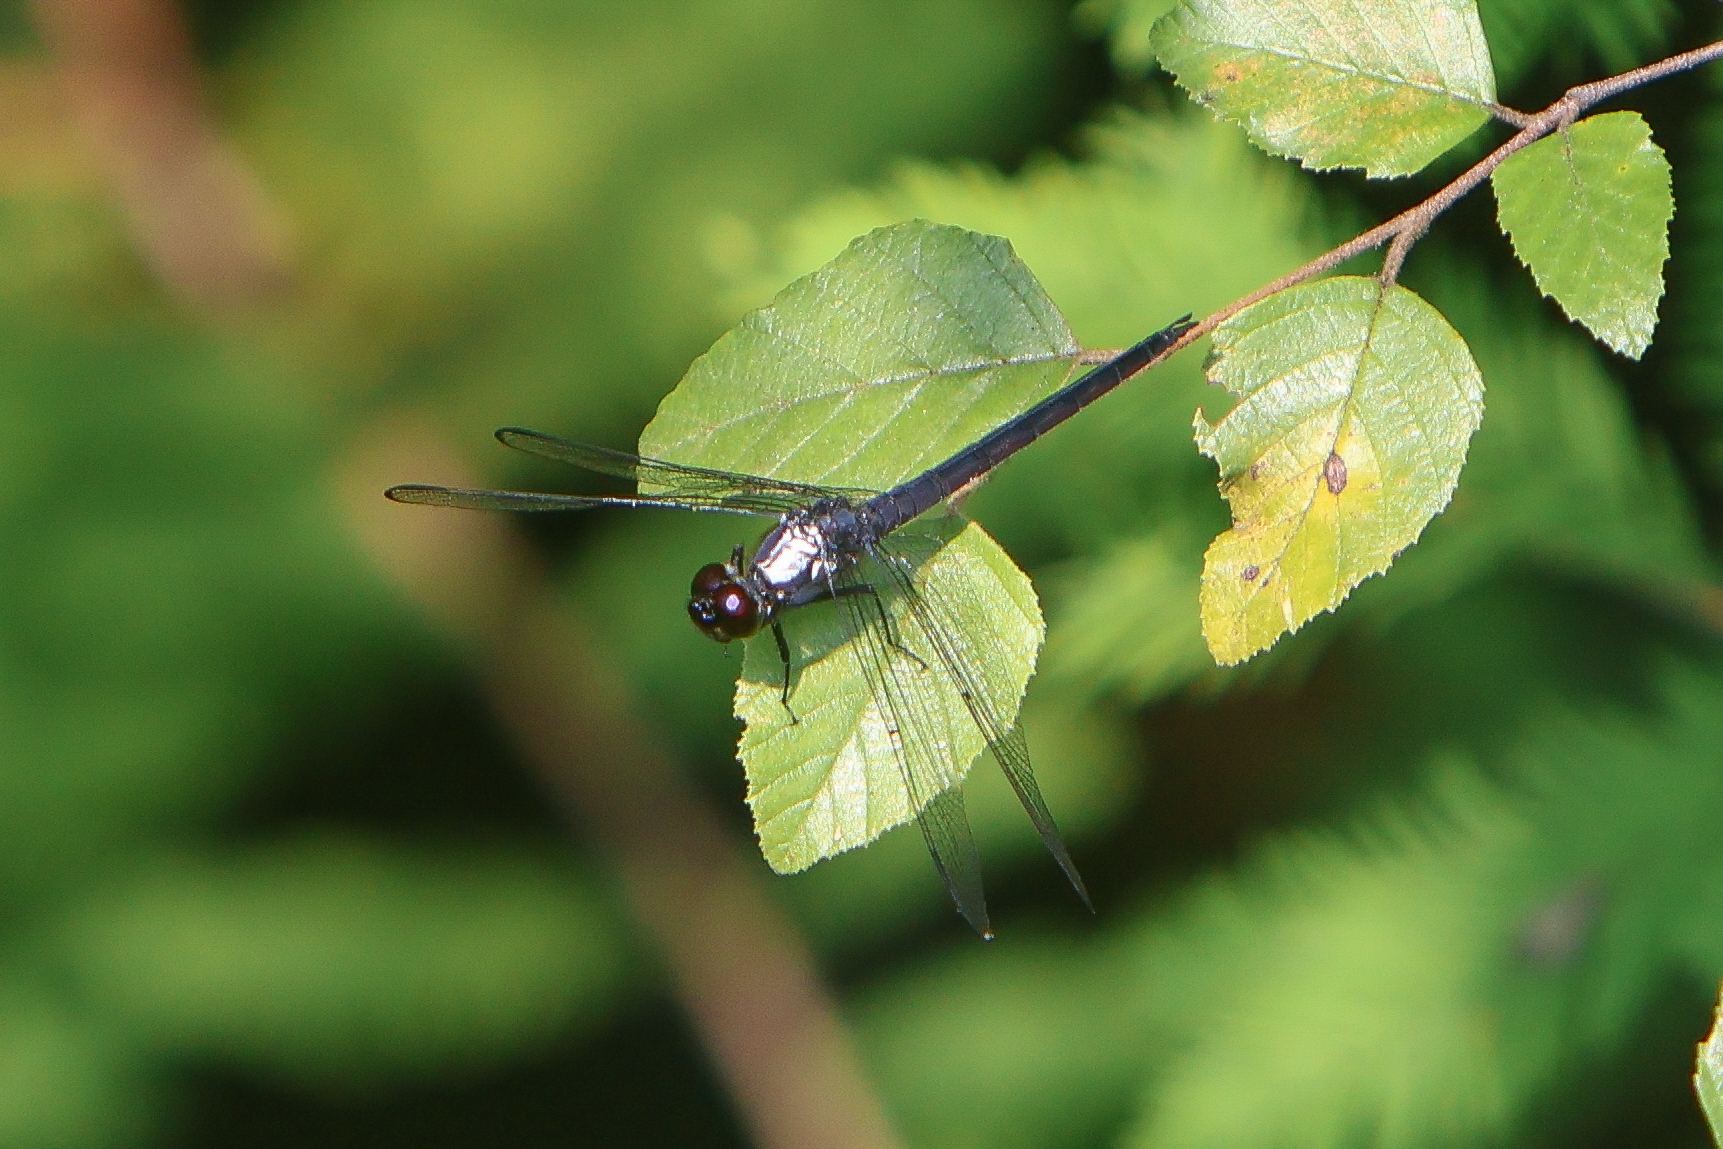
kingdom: Animalia
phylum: Arthropoda
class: Insecta
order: Odonata
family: Libellulidae
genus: Libellula
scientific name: Libellula incesta
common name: Slaty skimmer
